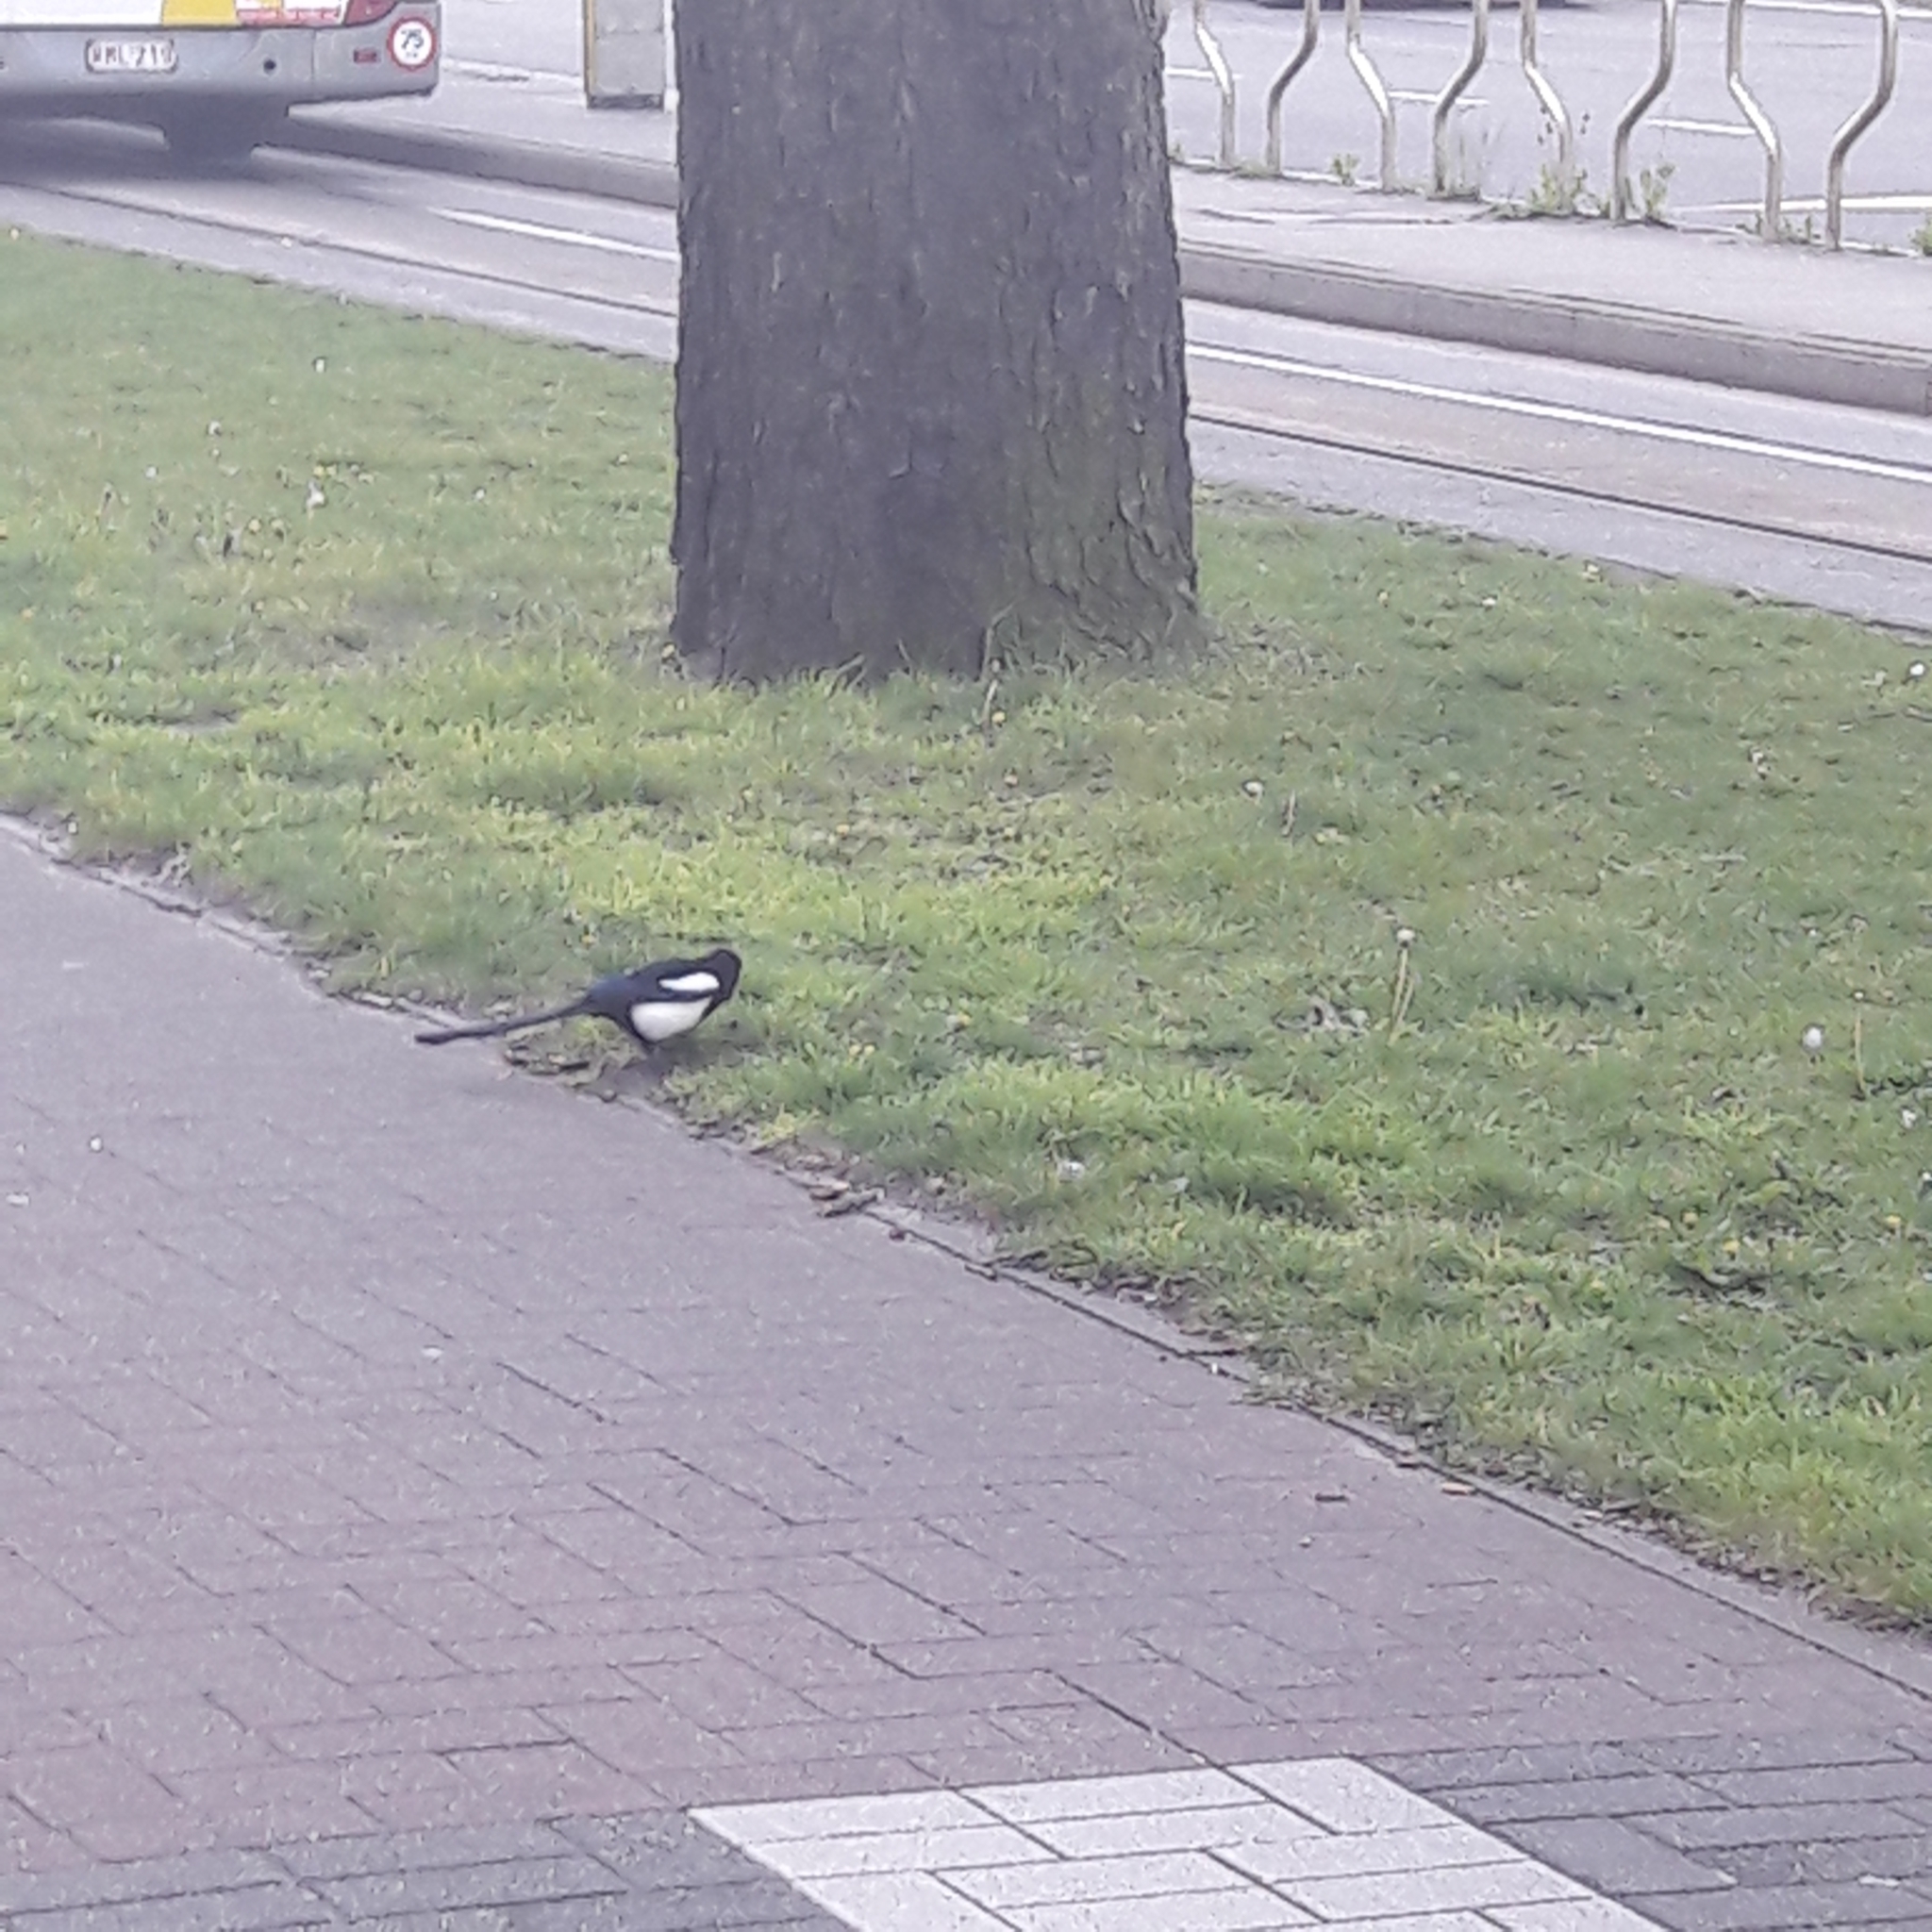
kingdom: Animalia
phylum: Chordata
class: Aves
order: Passeriformes
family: Corvidae
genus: Pica
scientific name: Pica pica
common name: Eurasian magpie
